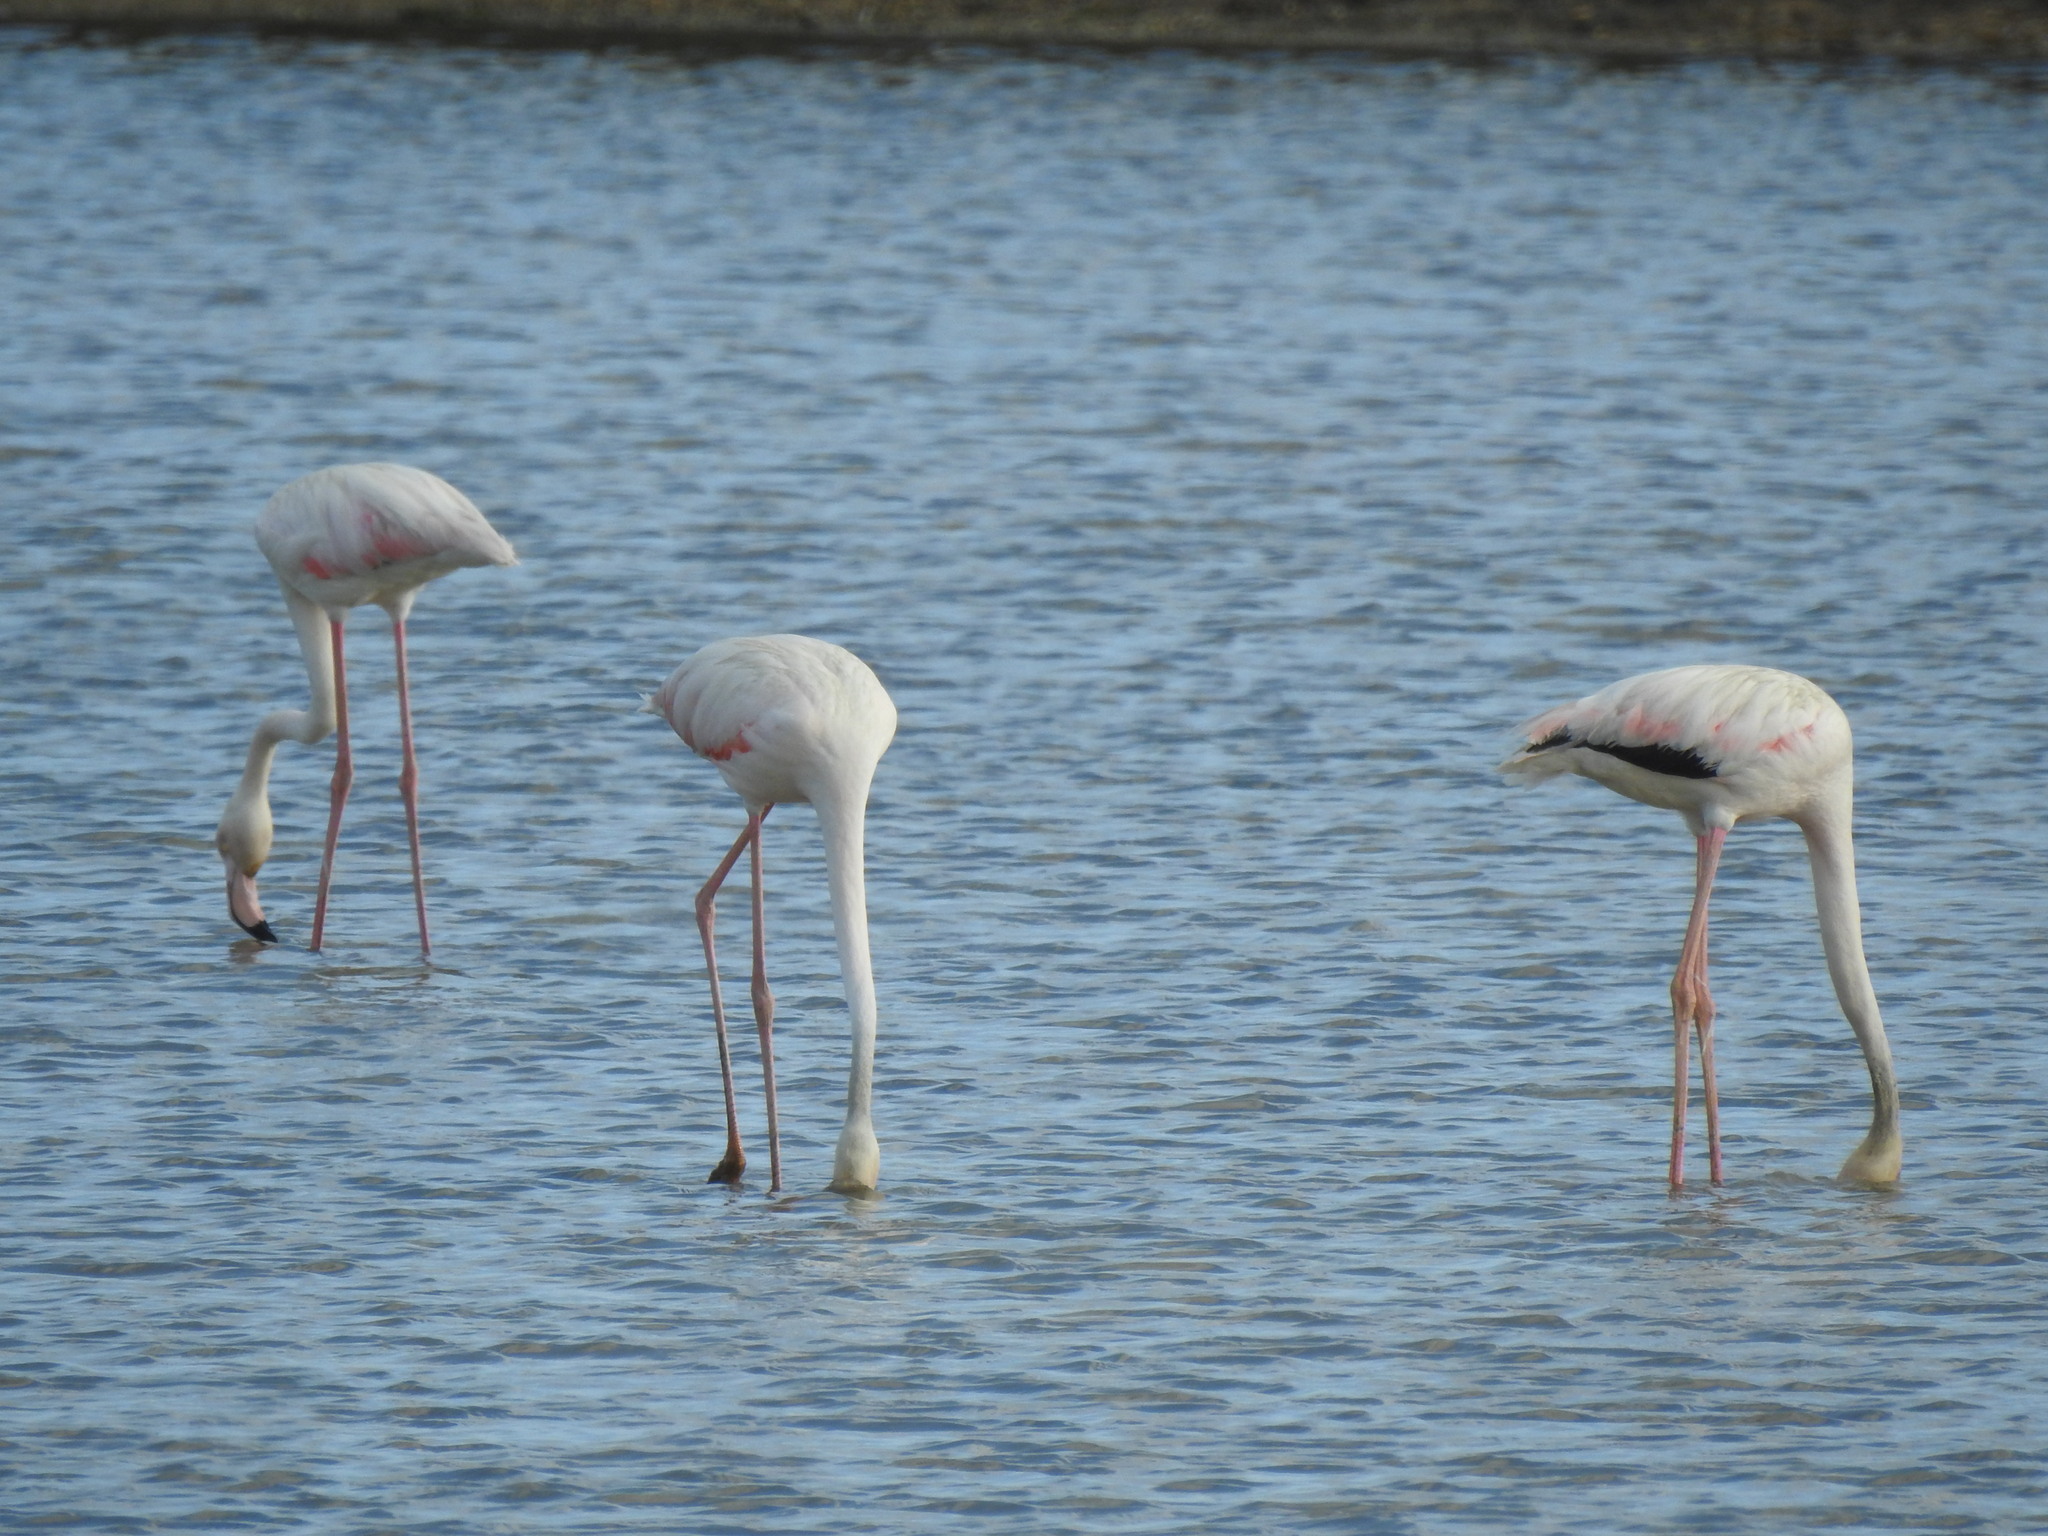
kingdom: Animalia
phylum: Chordata
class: Aves
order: Phoenicopteriformes
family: Phoenicopteridae
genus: Phoenicopterus
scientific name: Phoenicopterus roseus
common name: Greater flamingo
